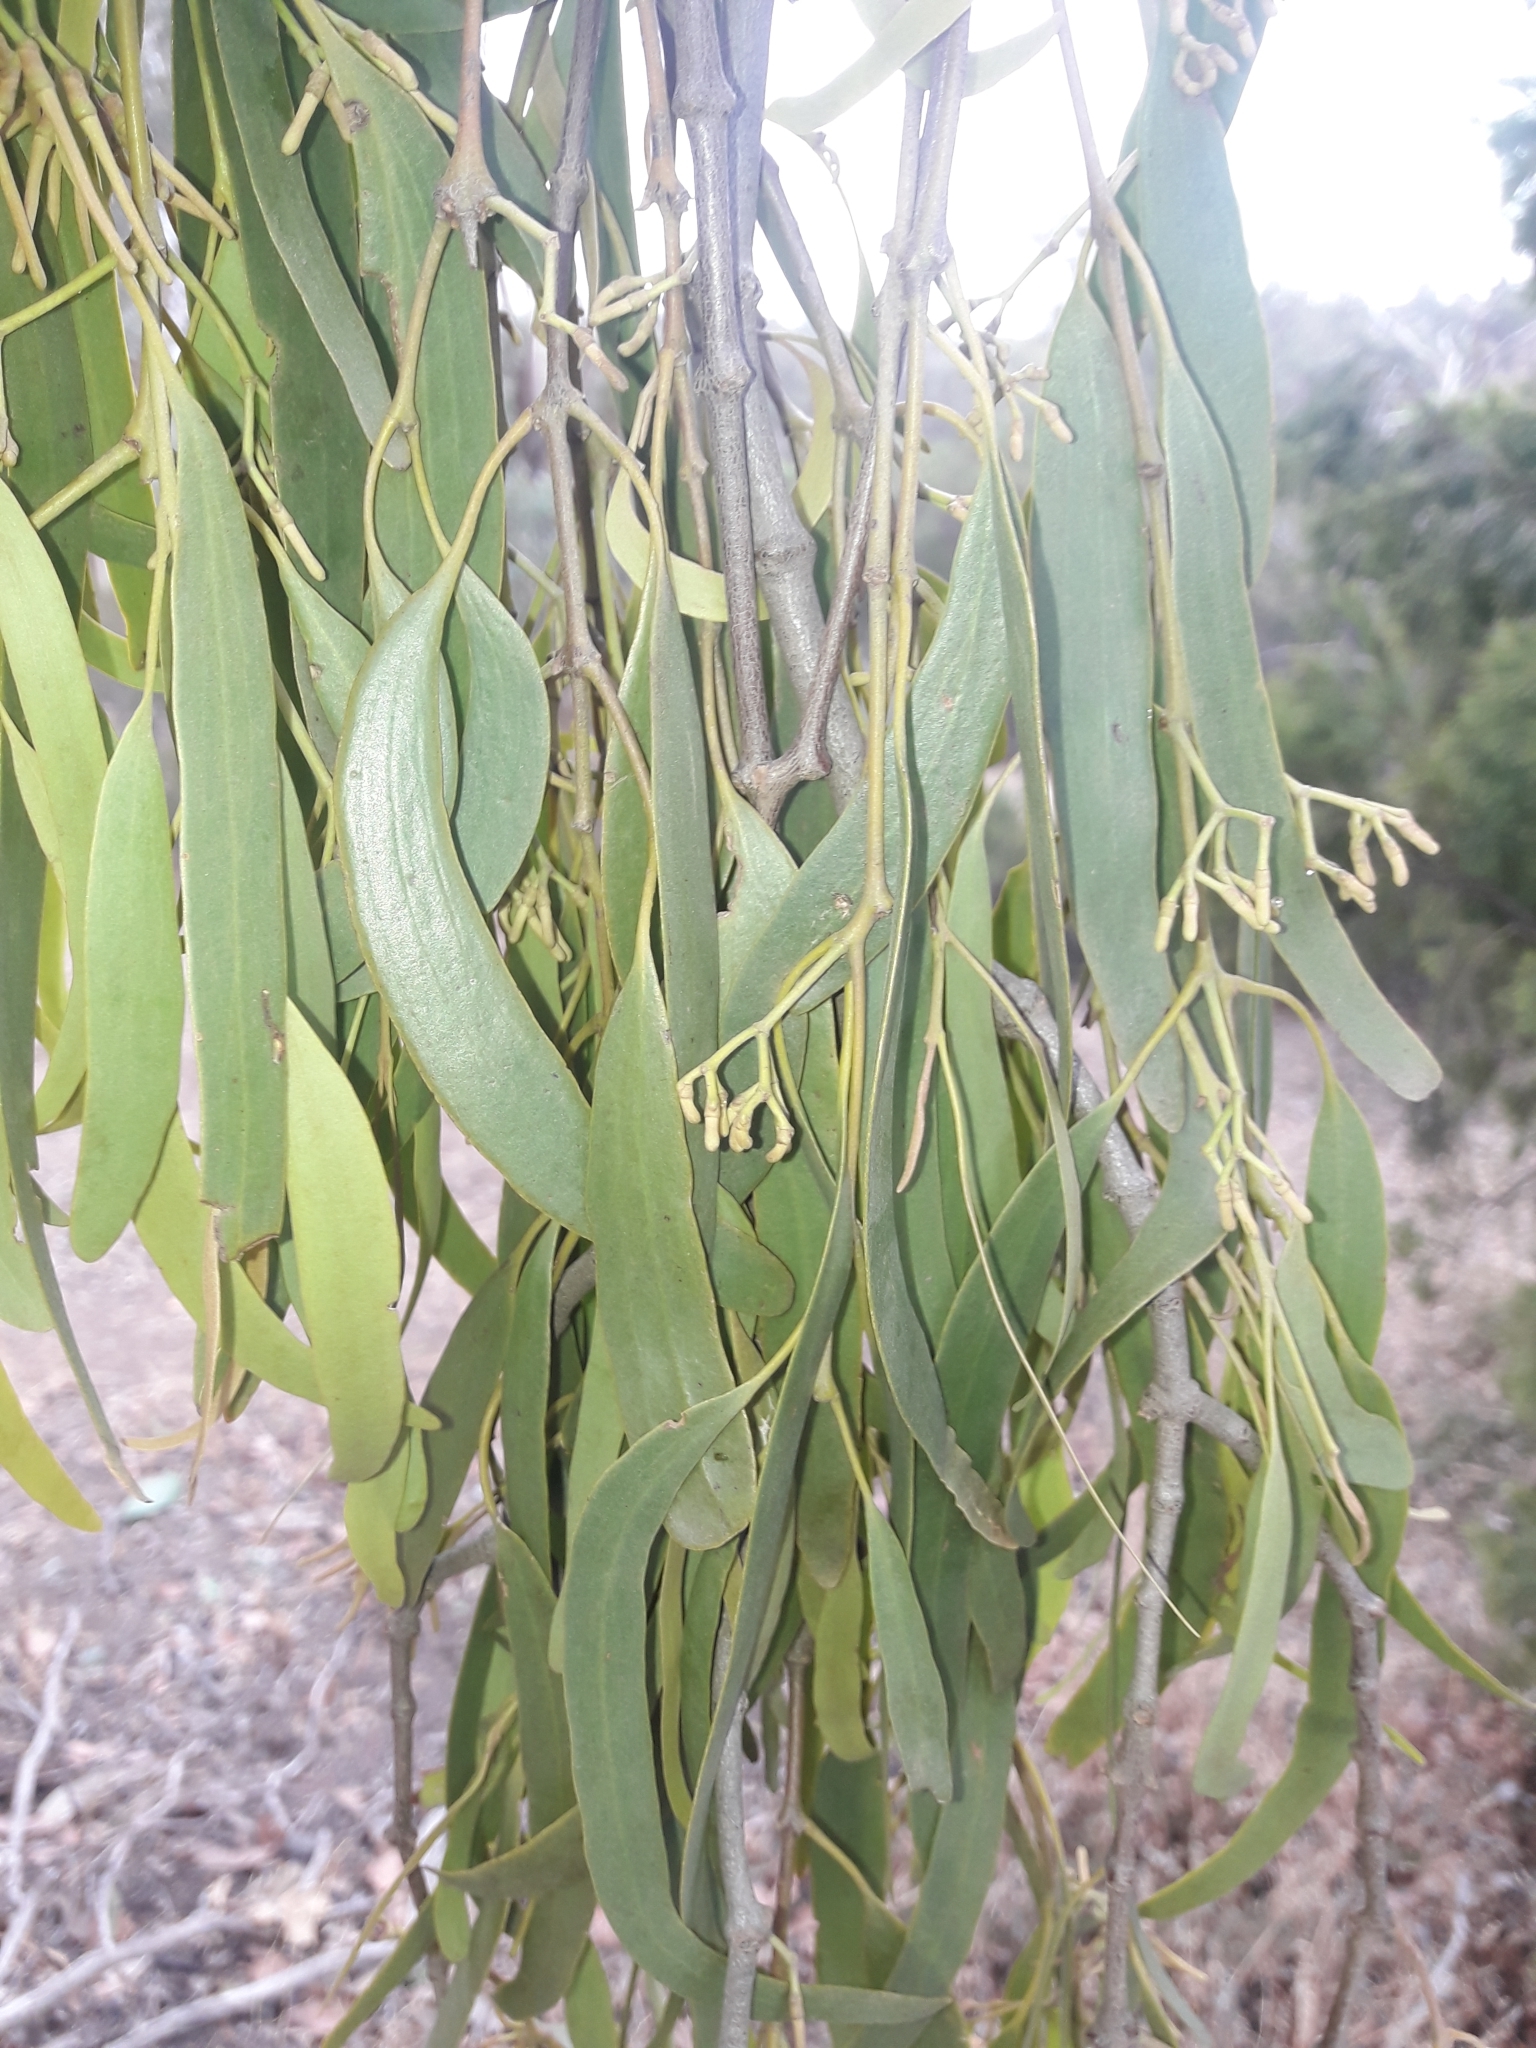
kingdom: Plantae
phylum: Tracheophyta
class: Magnoliopsida
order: Santalales
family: Loranthaceae
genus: Amyema
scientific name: Amyema miquelii
